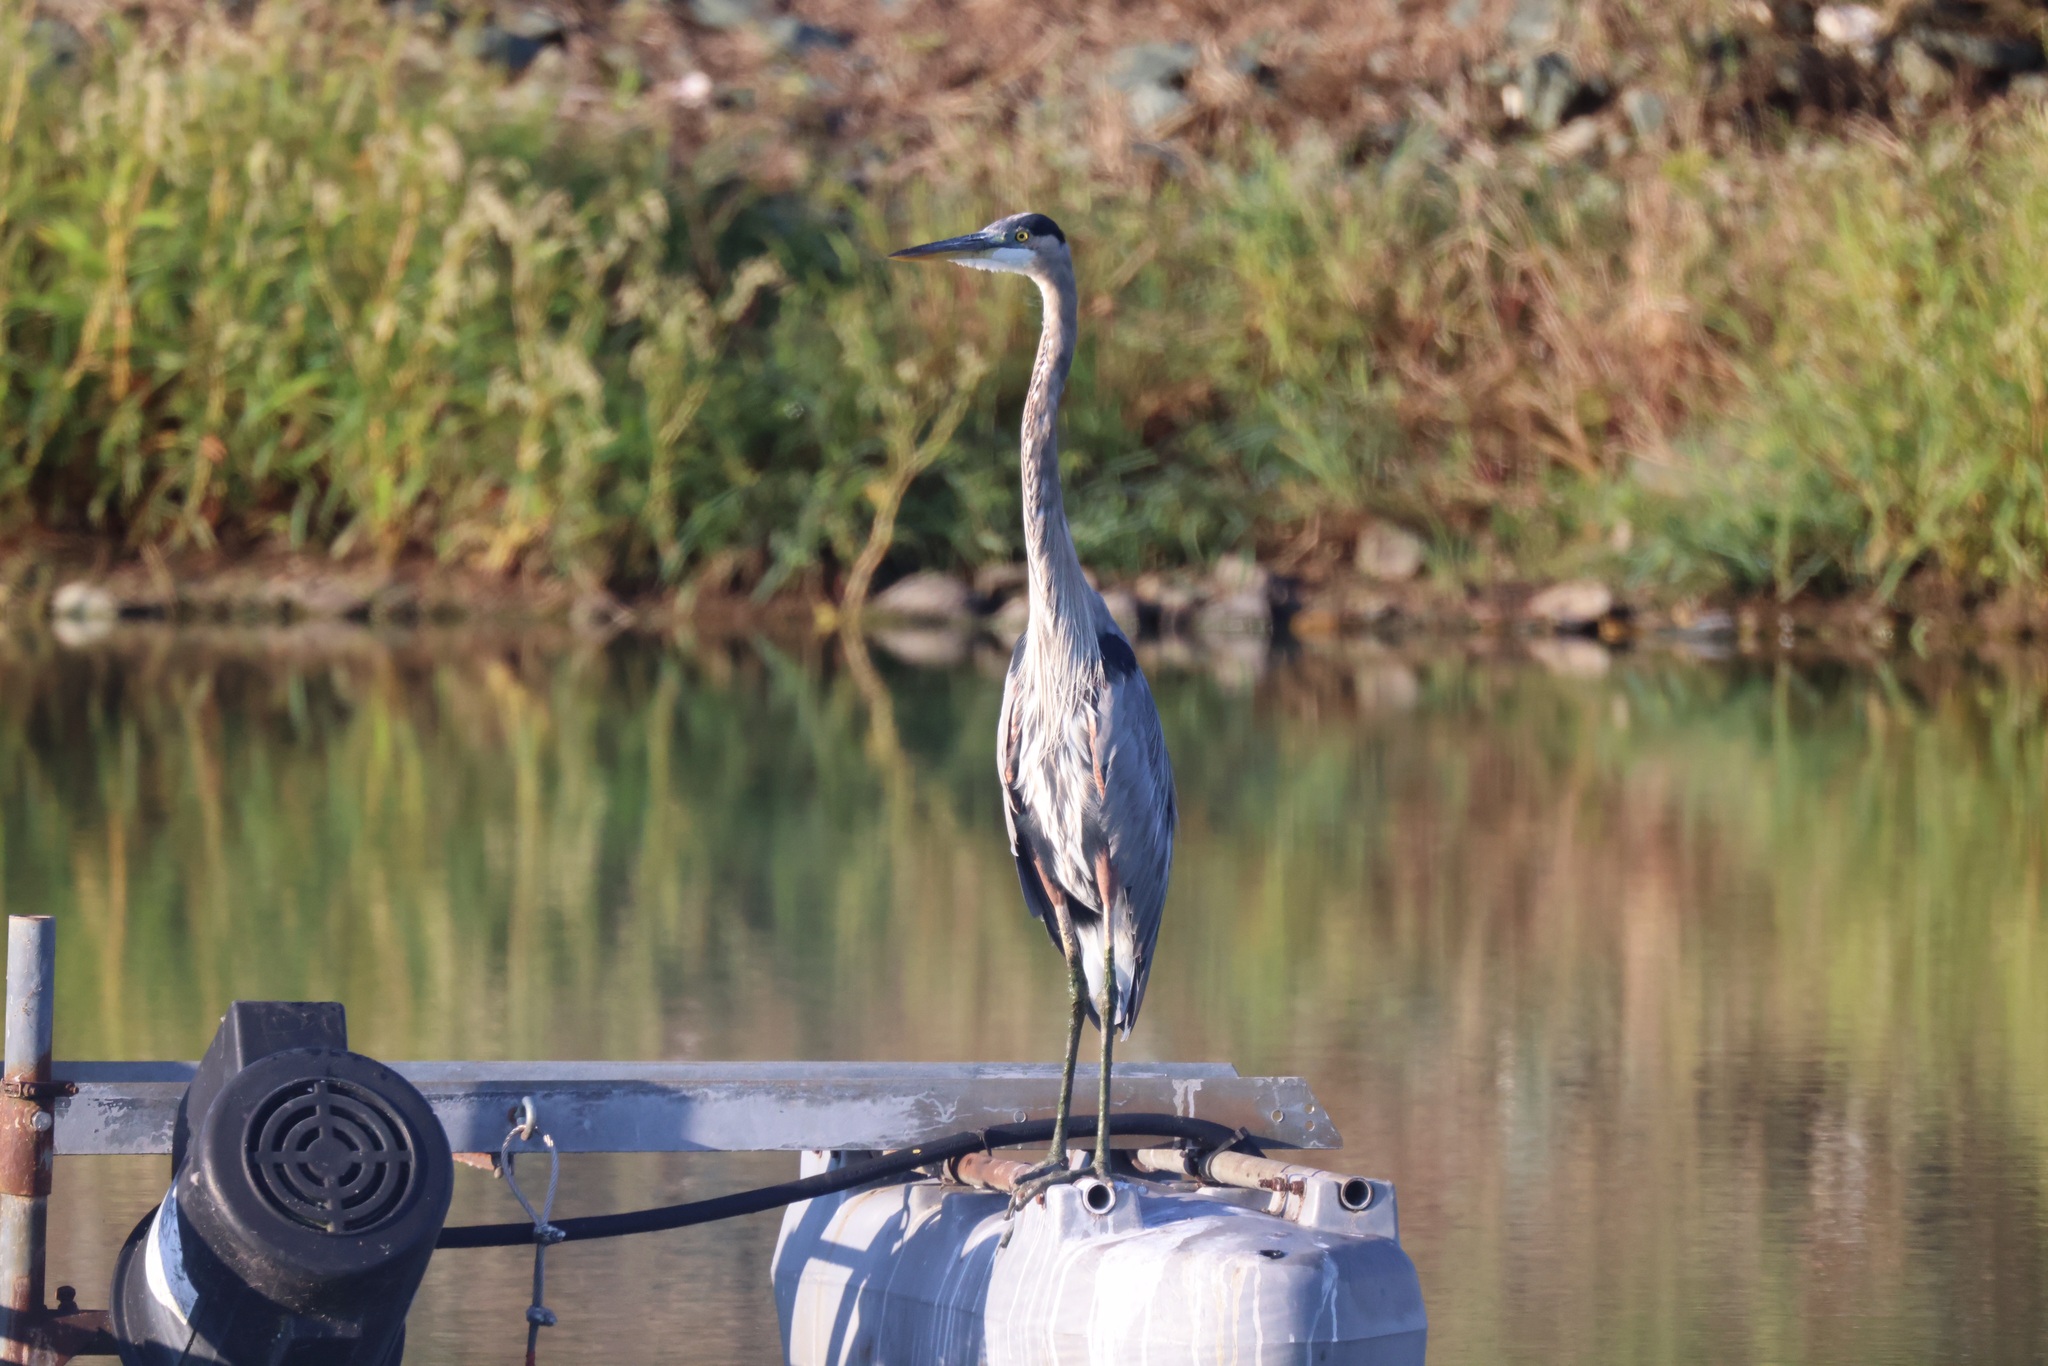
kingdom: Animalia
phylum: Chordata
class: Aves
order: Pelecaniformes
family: Ardeidae
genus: Ardea
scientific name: Ardea herodias
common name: Great blue heron
